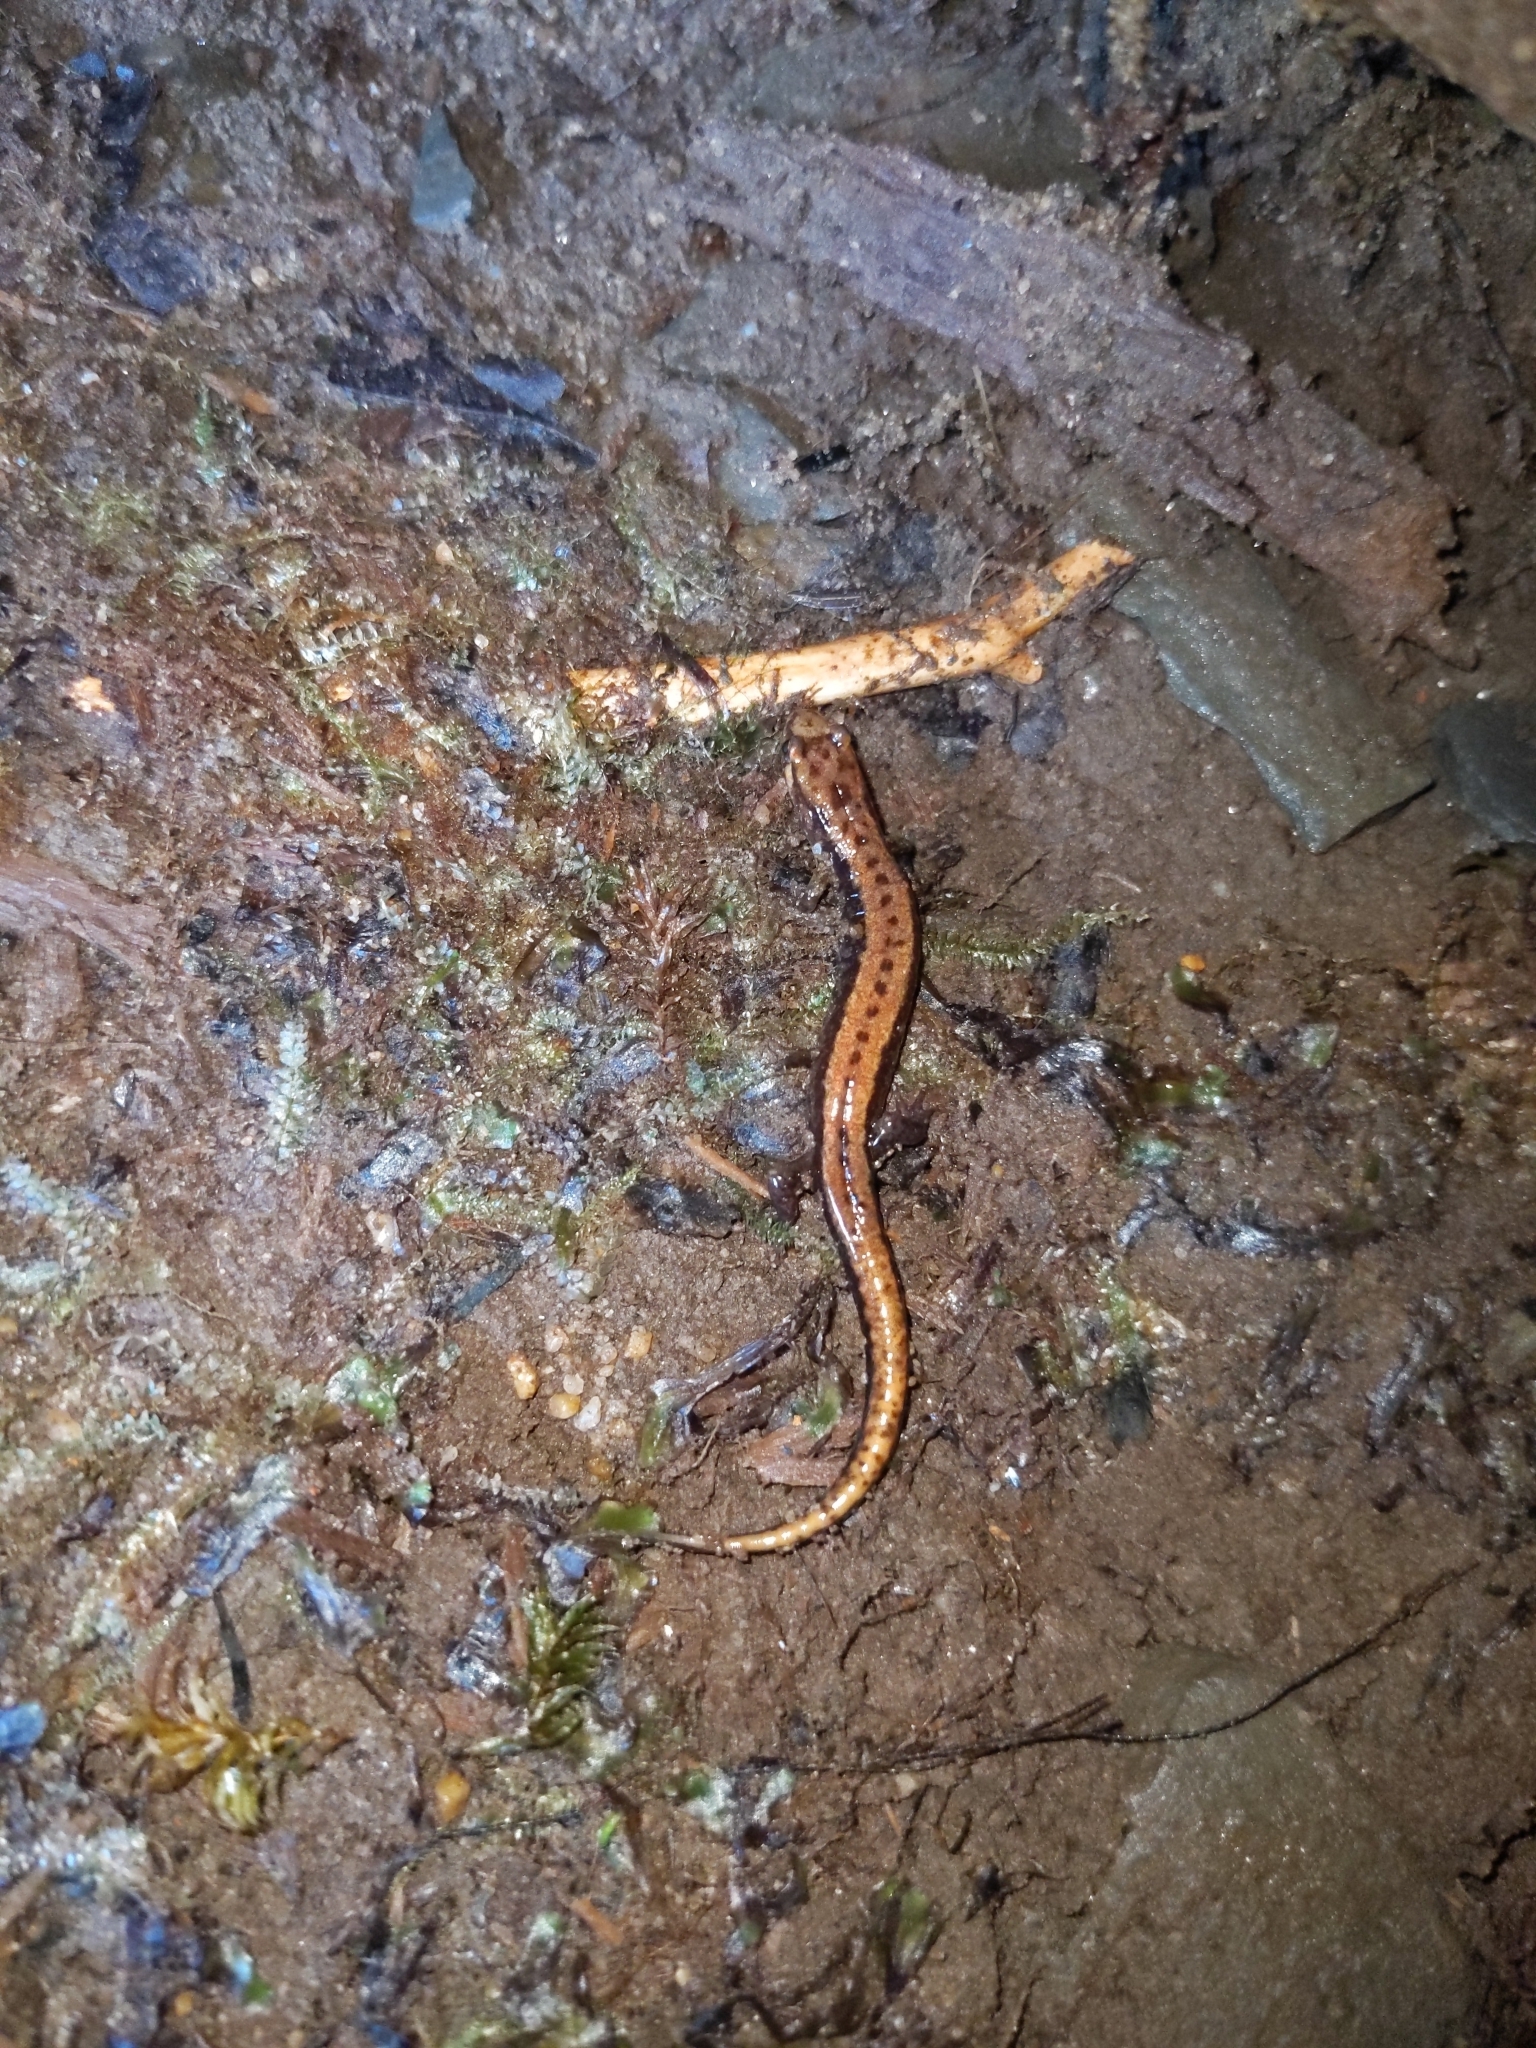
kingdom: Animalia
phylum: Chordata
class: Amphibia
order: Caudata
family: Plethodontidae
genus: Desmognathus
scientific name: Desmognathus ochrophaeus
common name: Allegheny mountain dusky salamander
